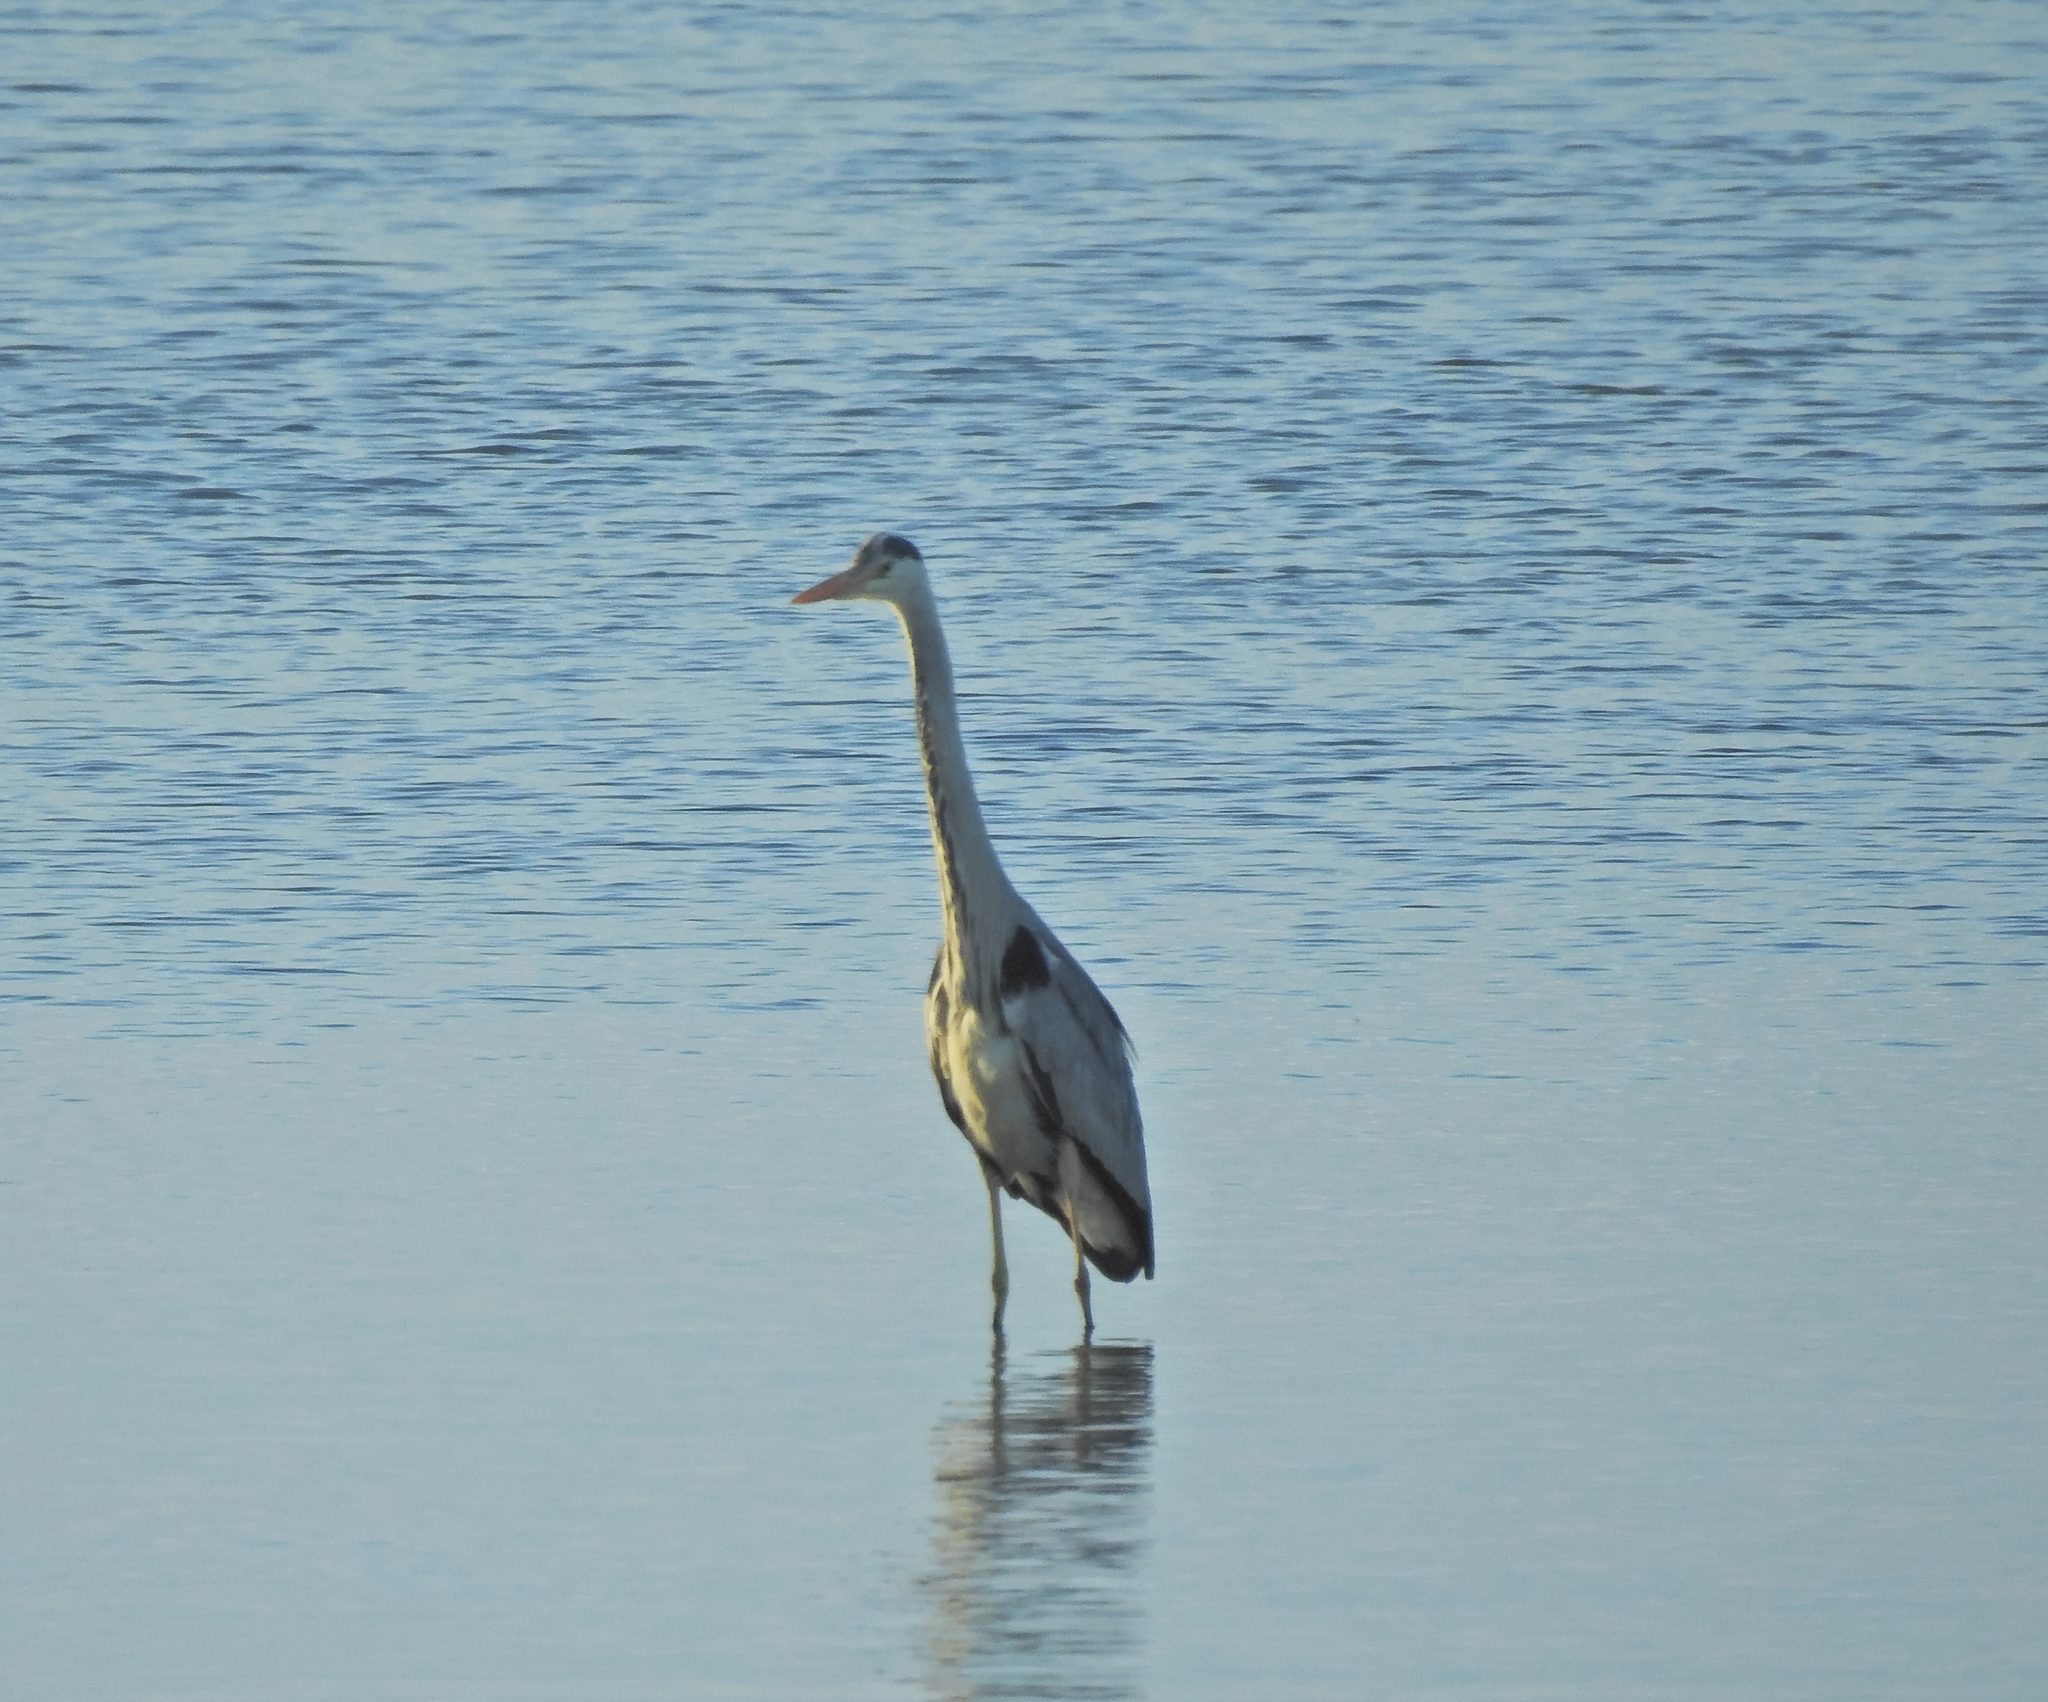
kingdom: Animalia
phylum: Chordata
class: Aves
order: Pelecaniformes
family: Ardeidae
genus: Ardea
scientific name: Ardea cinerea
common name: Grey heron
